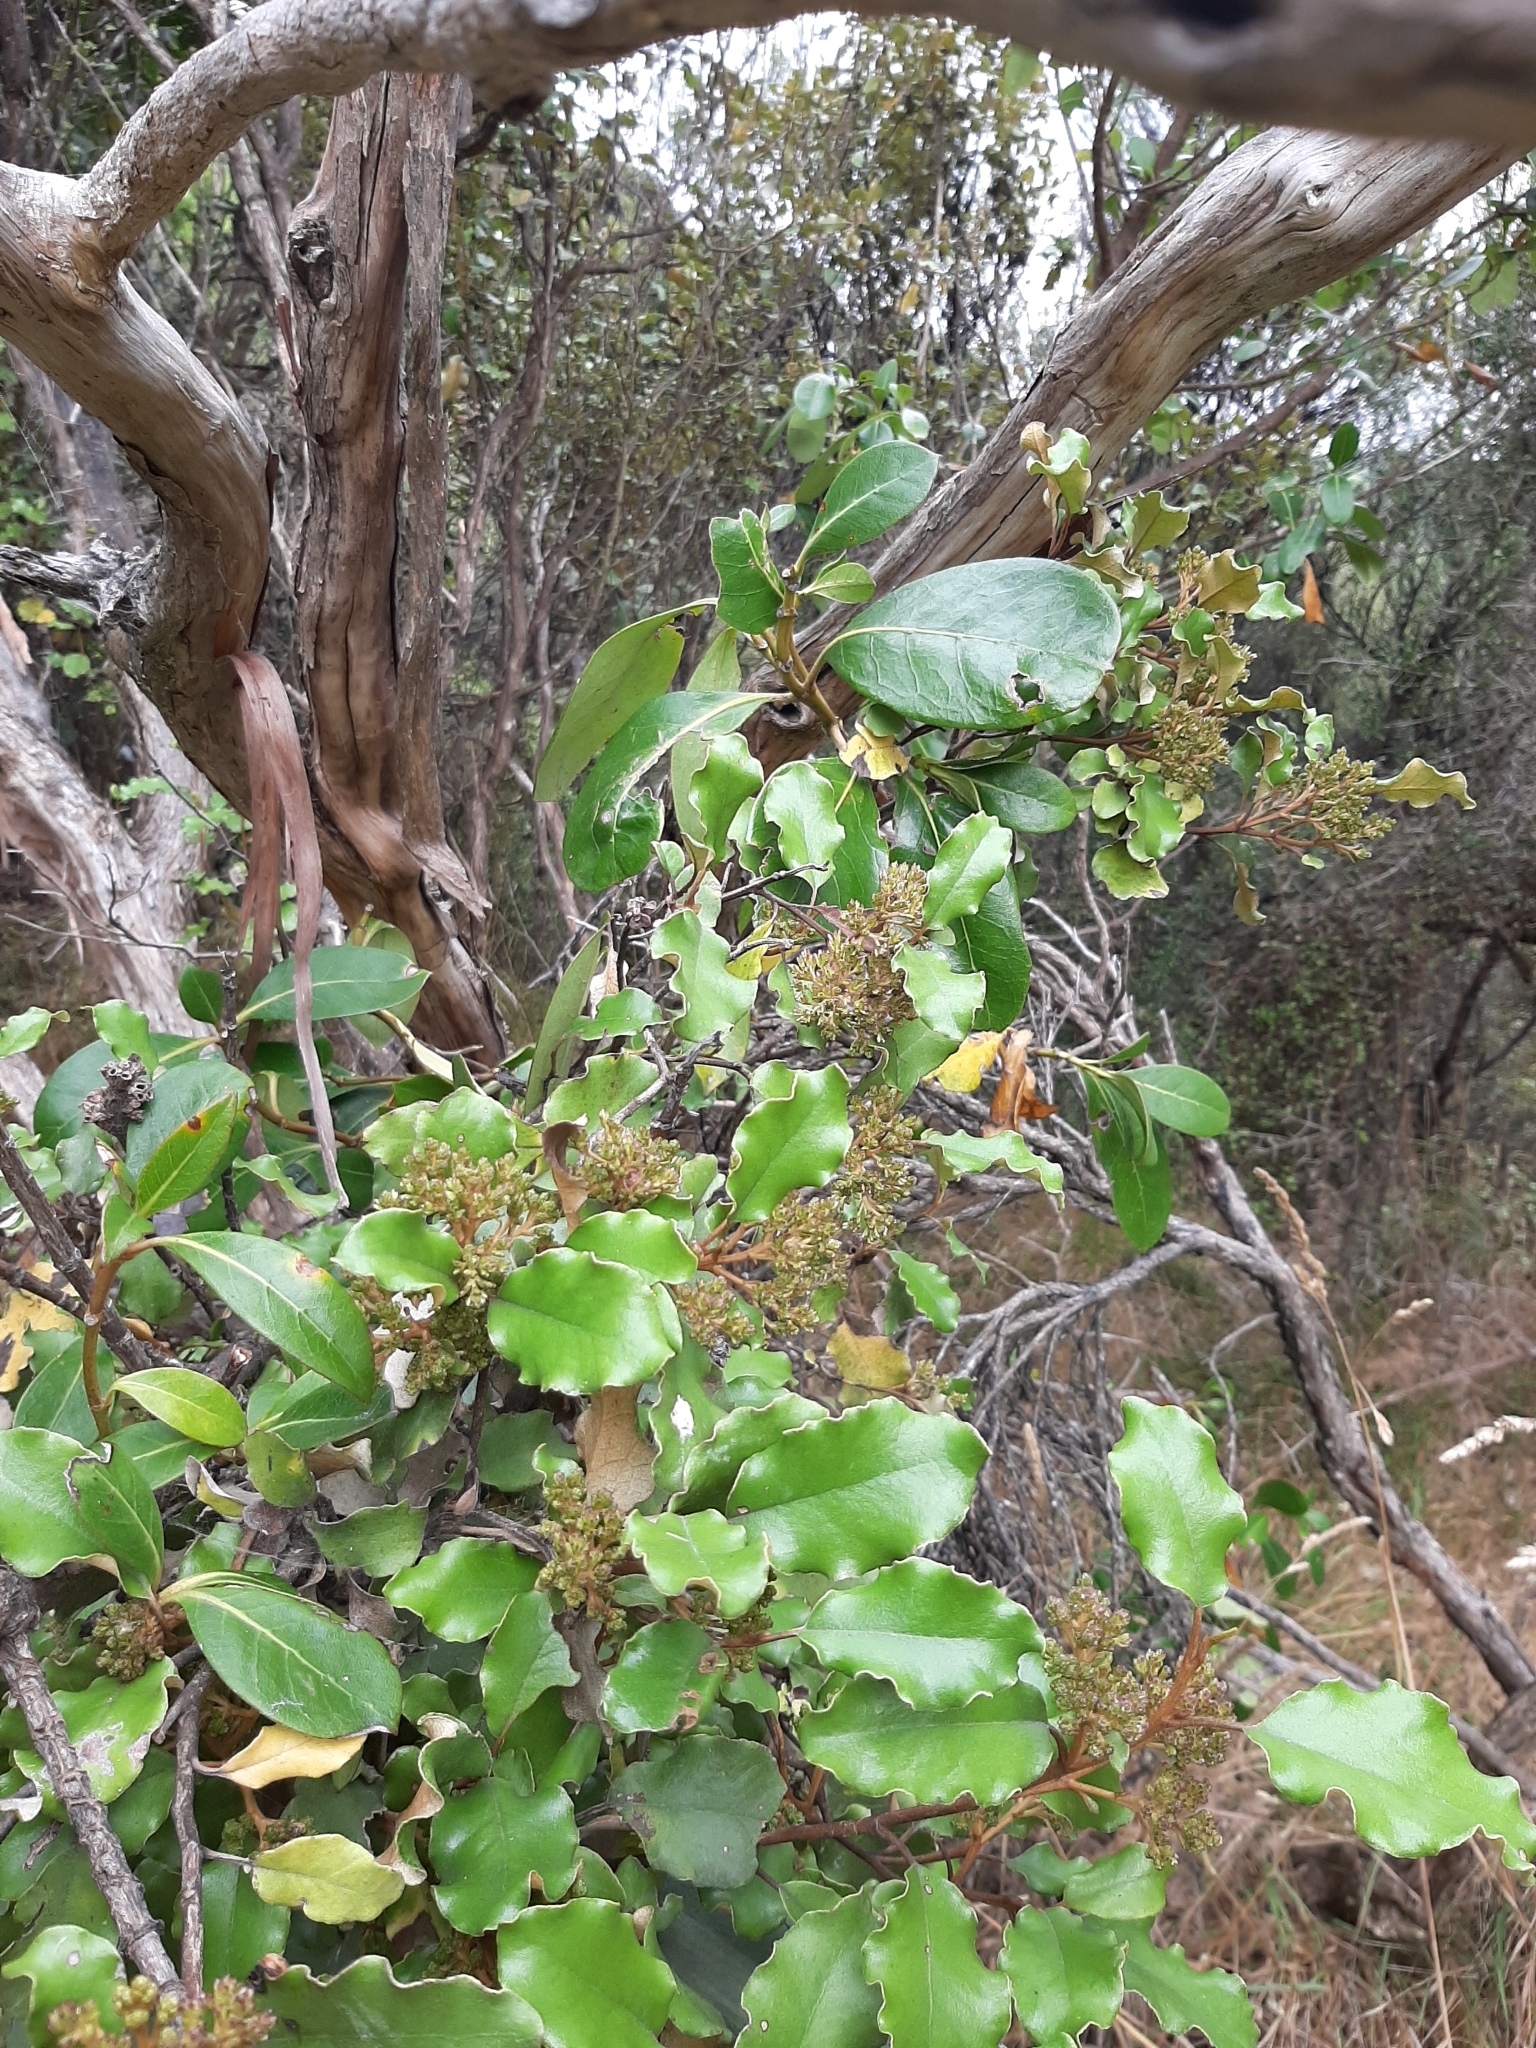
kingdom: Plantae
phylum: Tracheophyta
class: Magnoliopsida
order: Asterales
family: Asteraceae
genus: Olearia
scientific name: Olearia paniculata
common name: Akiraho
